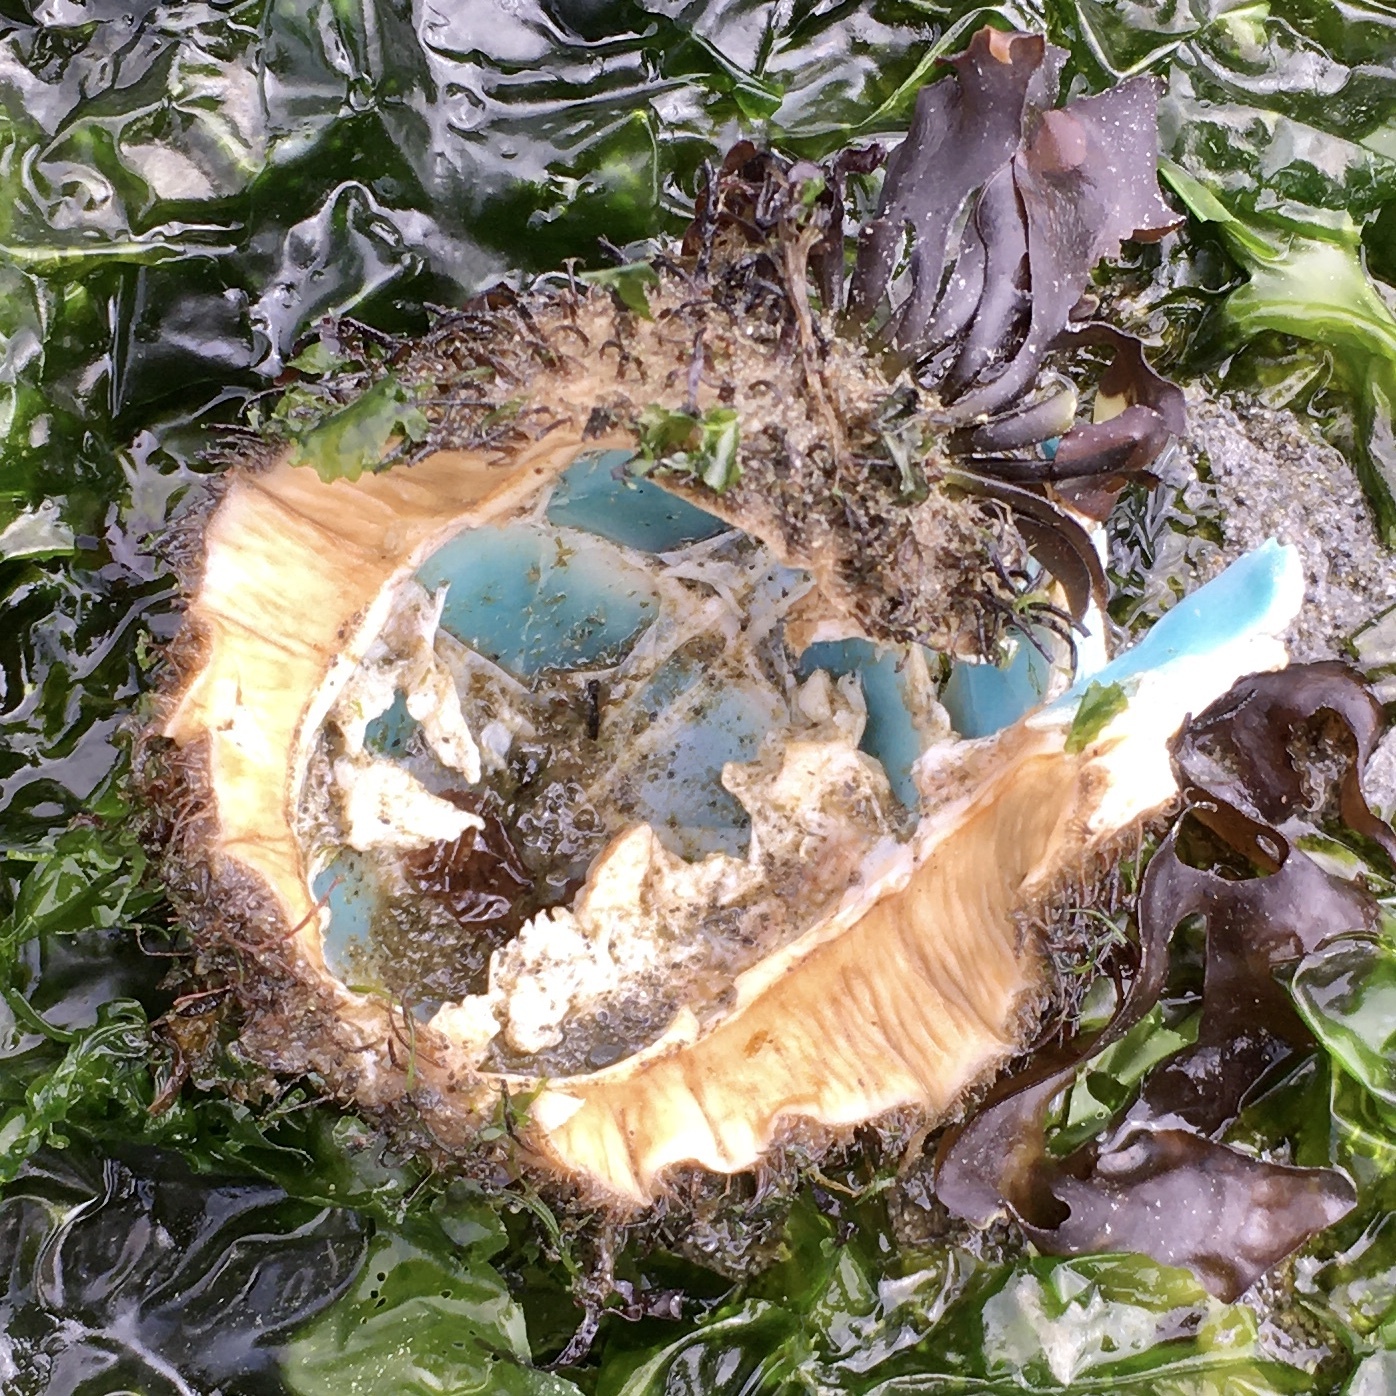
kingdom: Animalia
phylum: Mollusca
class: Polyplacophora
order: Chitonida
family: Mopaliidae
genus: Mopalia
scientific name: Mopalia muscosa
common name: Mossy chiton
